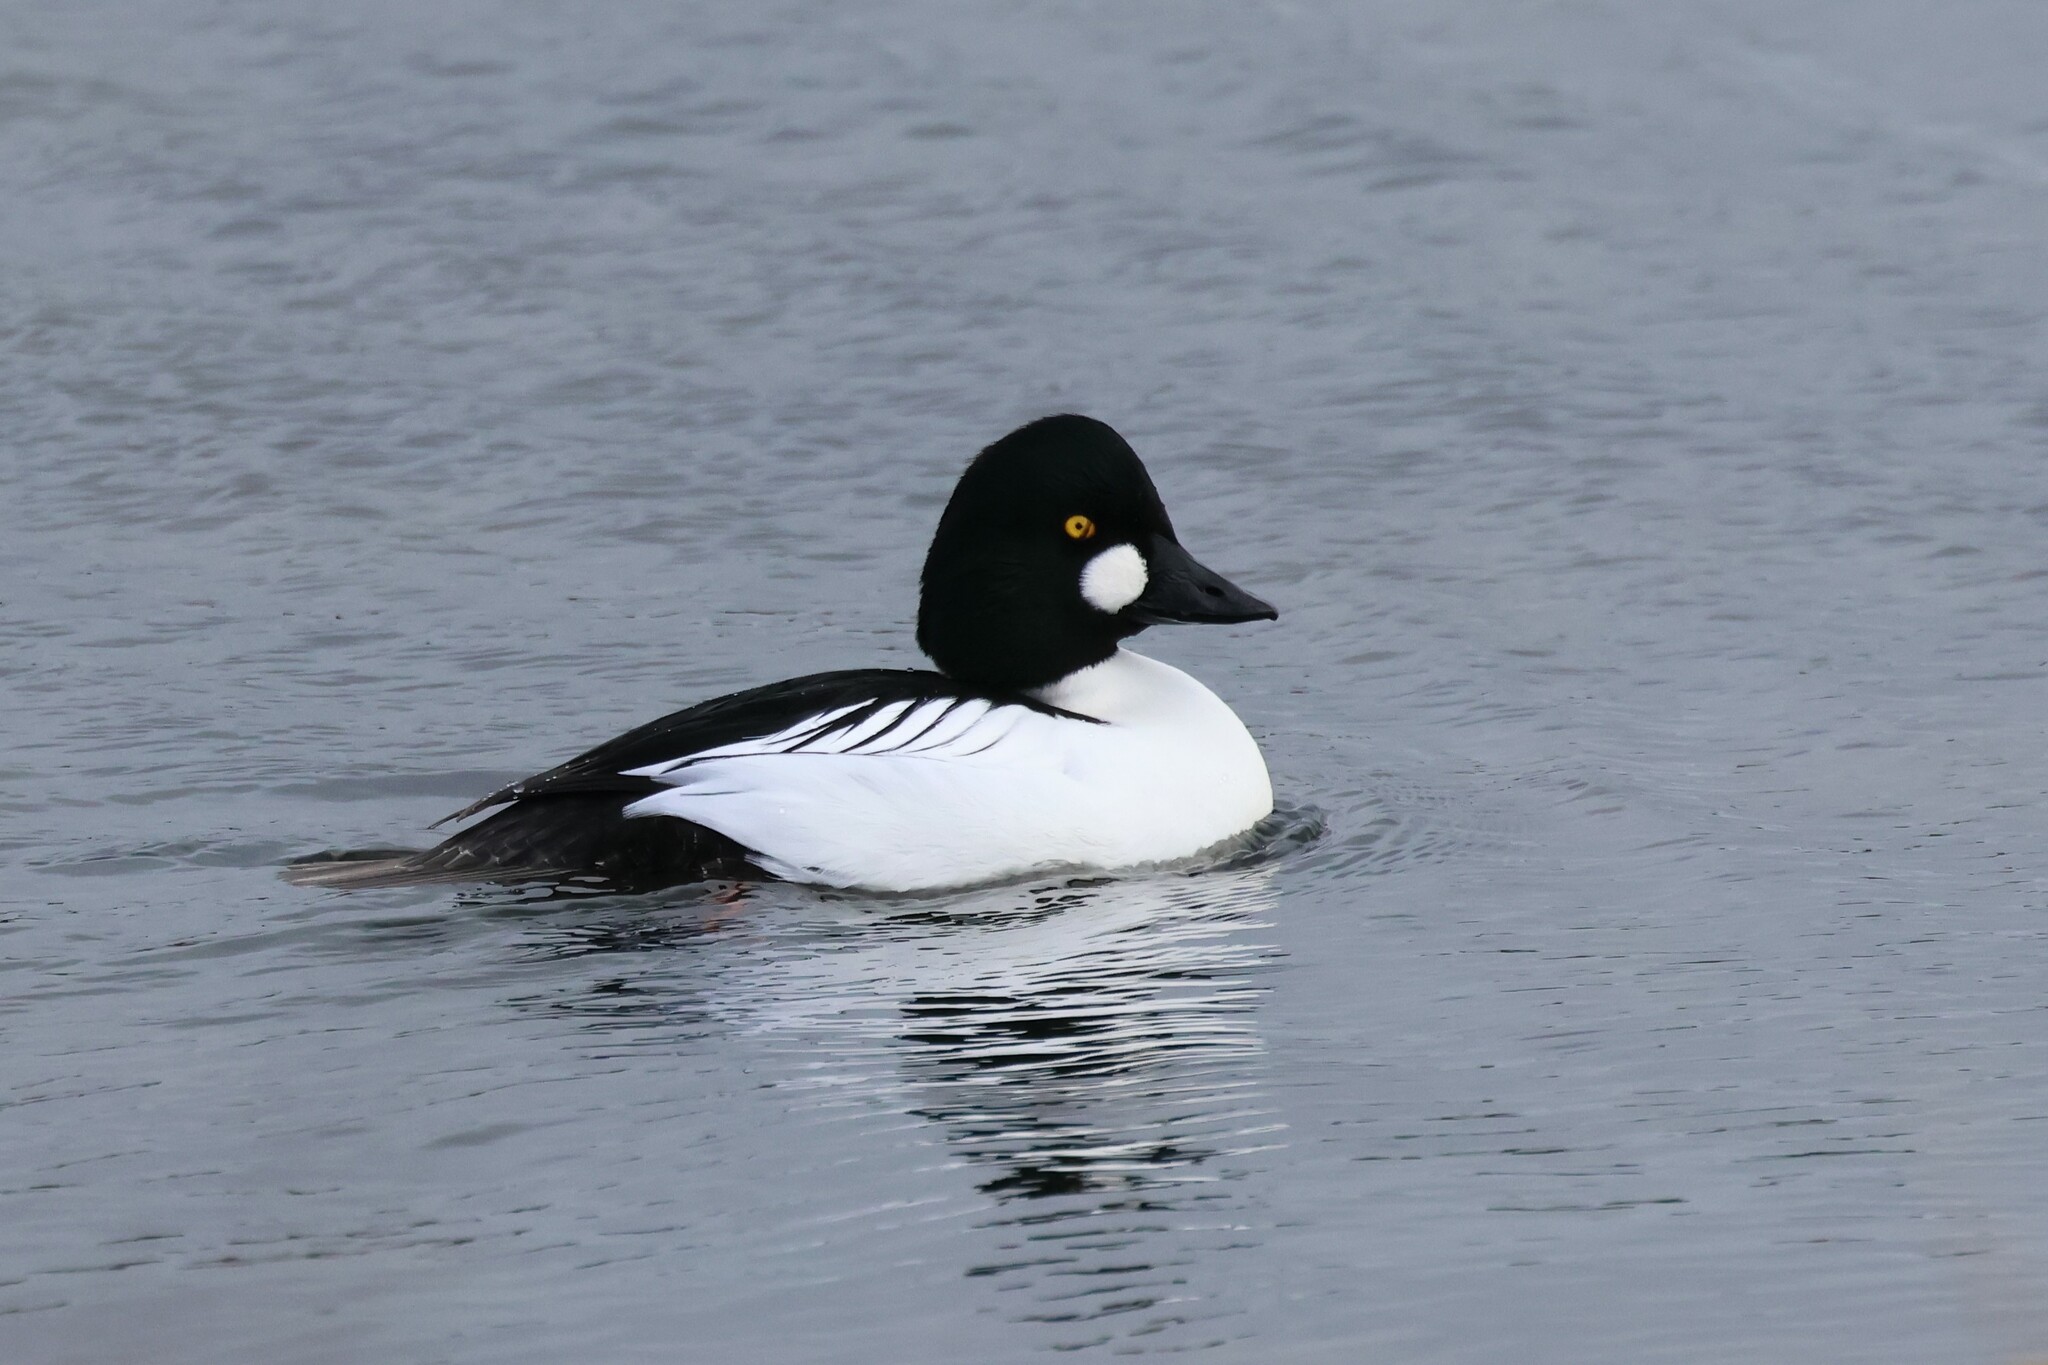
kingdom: Animalia
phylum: Chordata
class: Aves
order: Anseriformes
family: Anatidae
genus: Bucephala
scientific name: Bucephala clangula
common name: Common goldeneye
